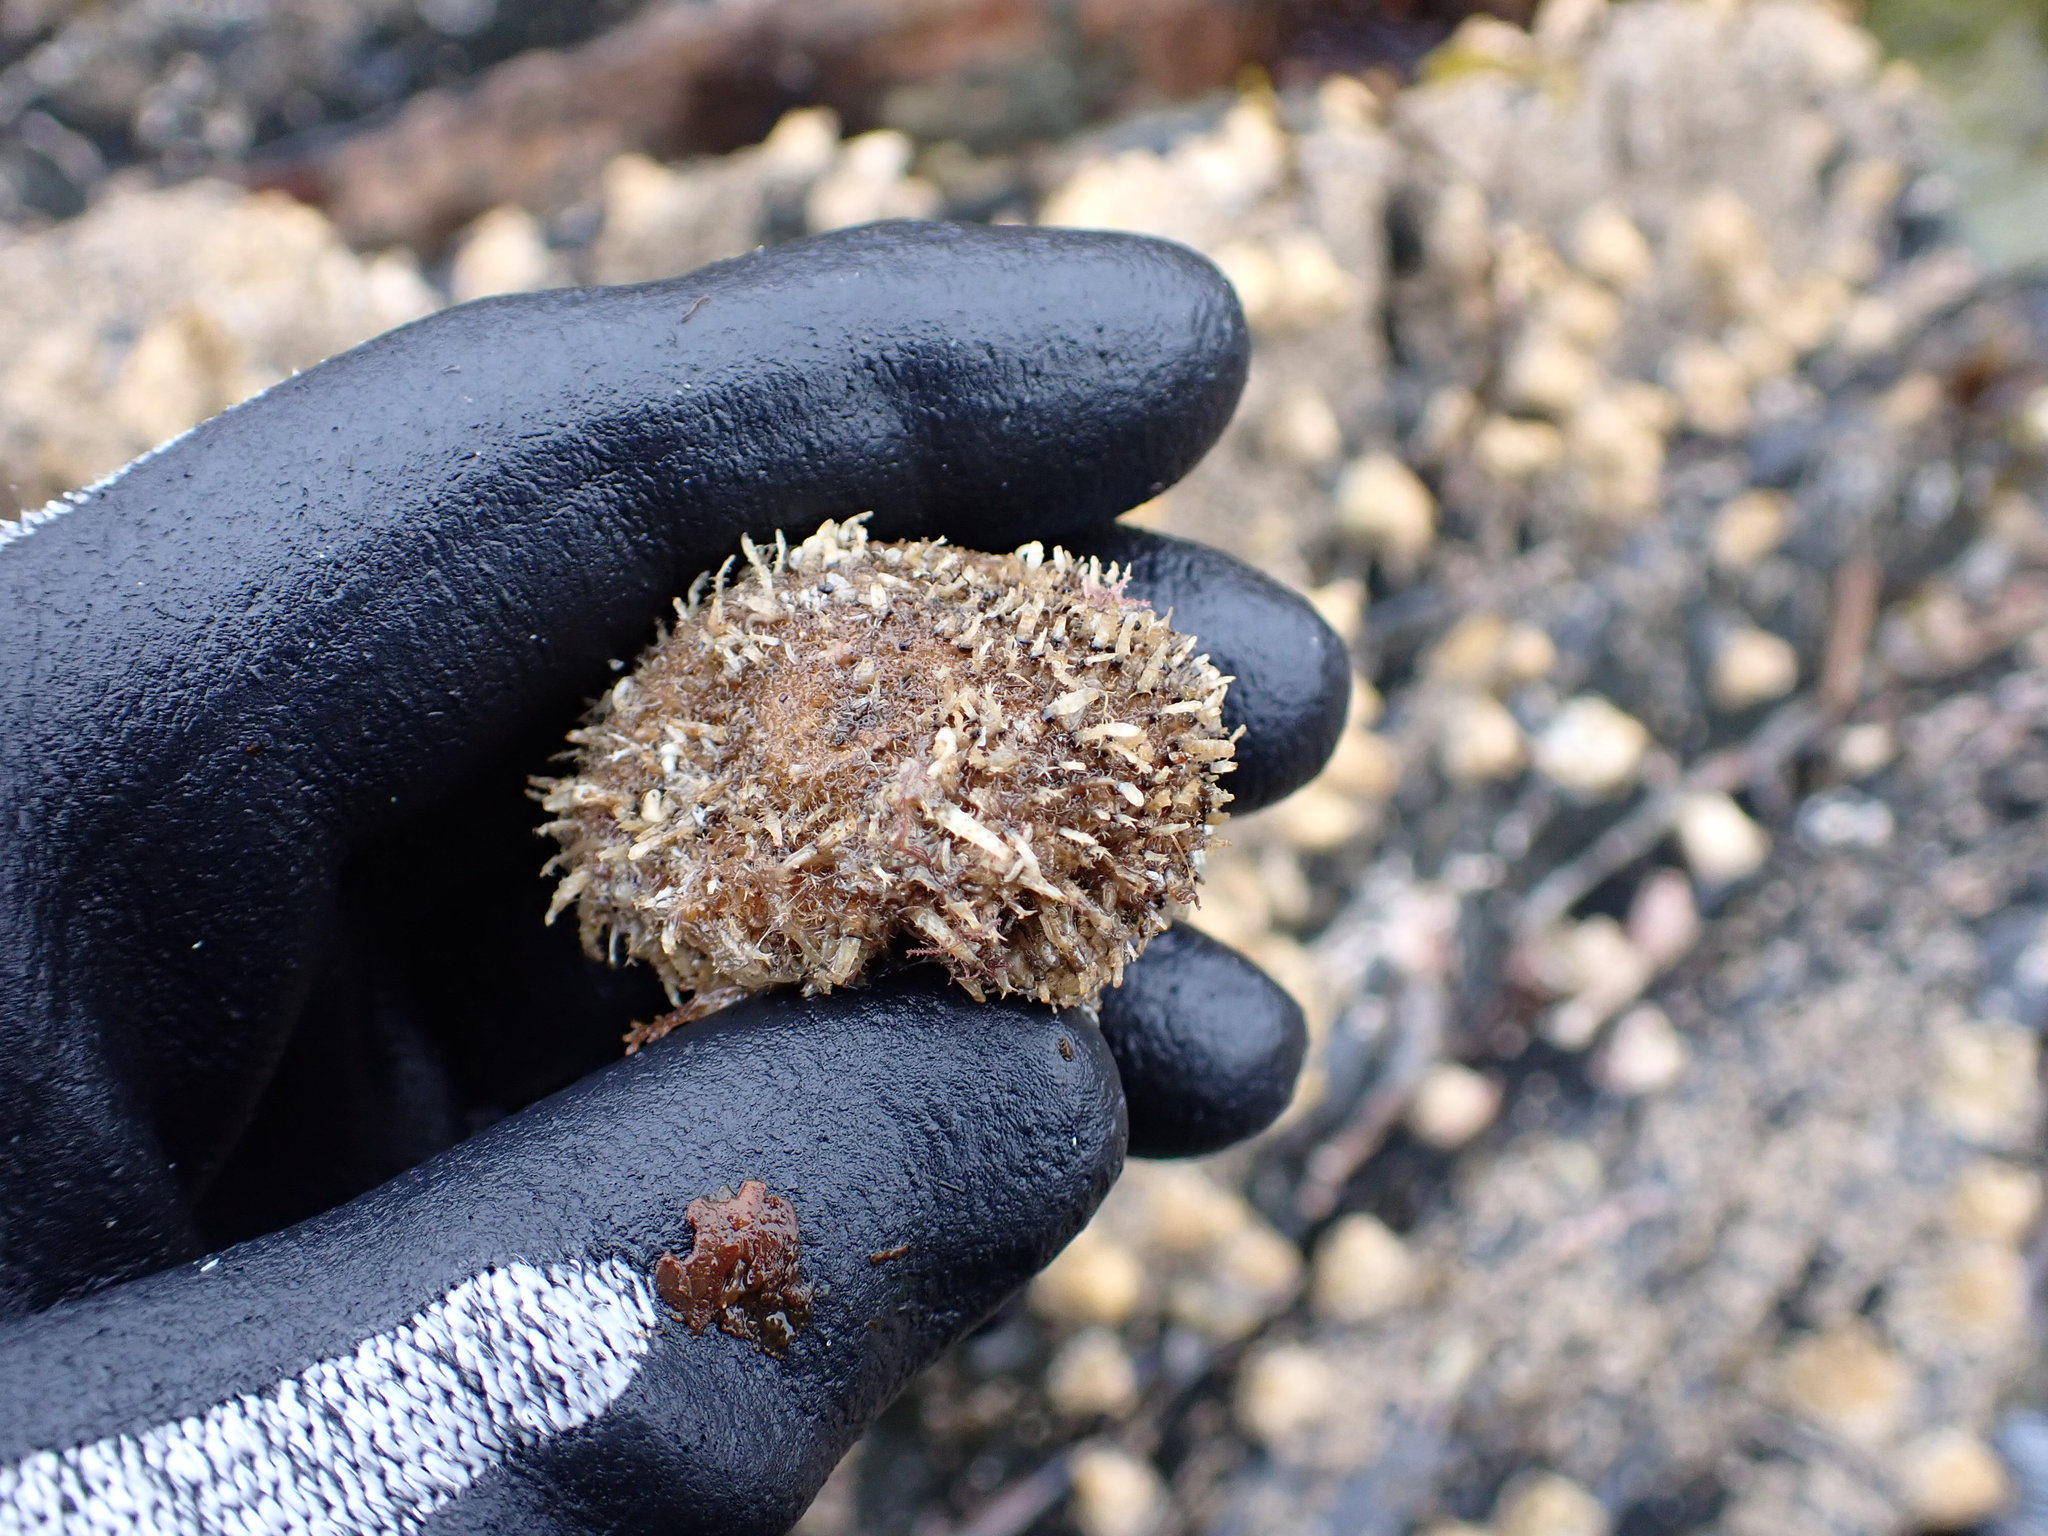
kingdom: Animalia
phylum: Chordata
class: Ascidiacea
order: Stolidobranchia
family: Pyuridae
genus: Halocynthia
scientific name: Halocynthia igaboja
